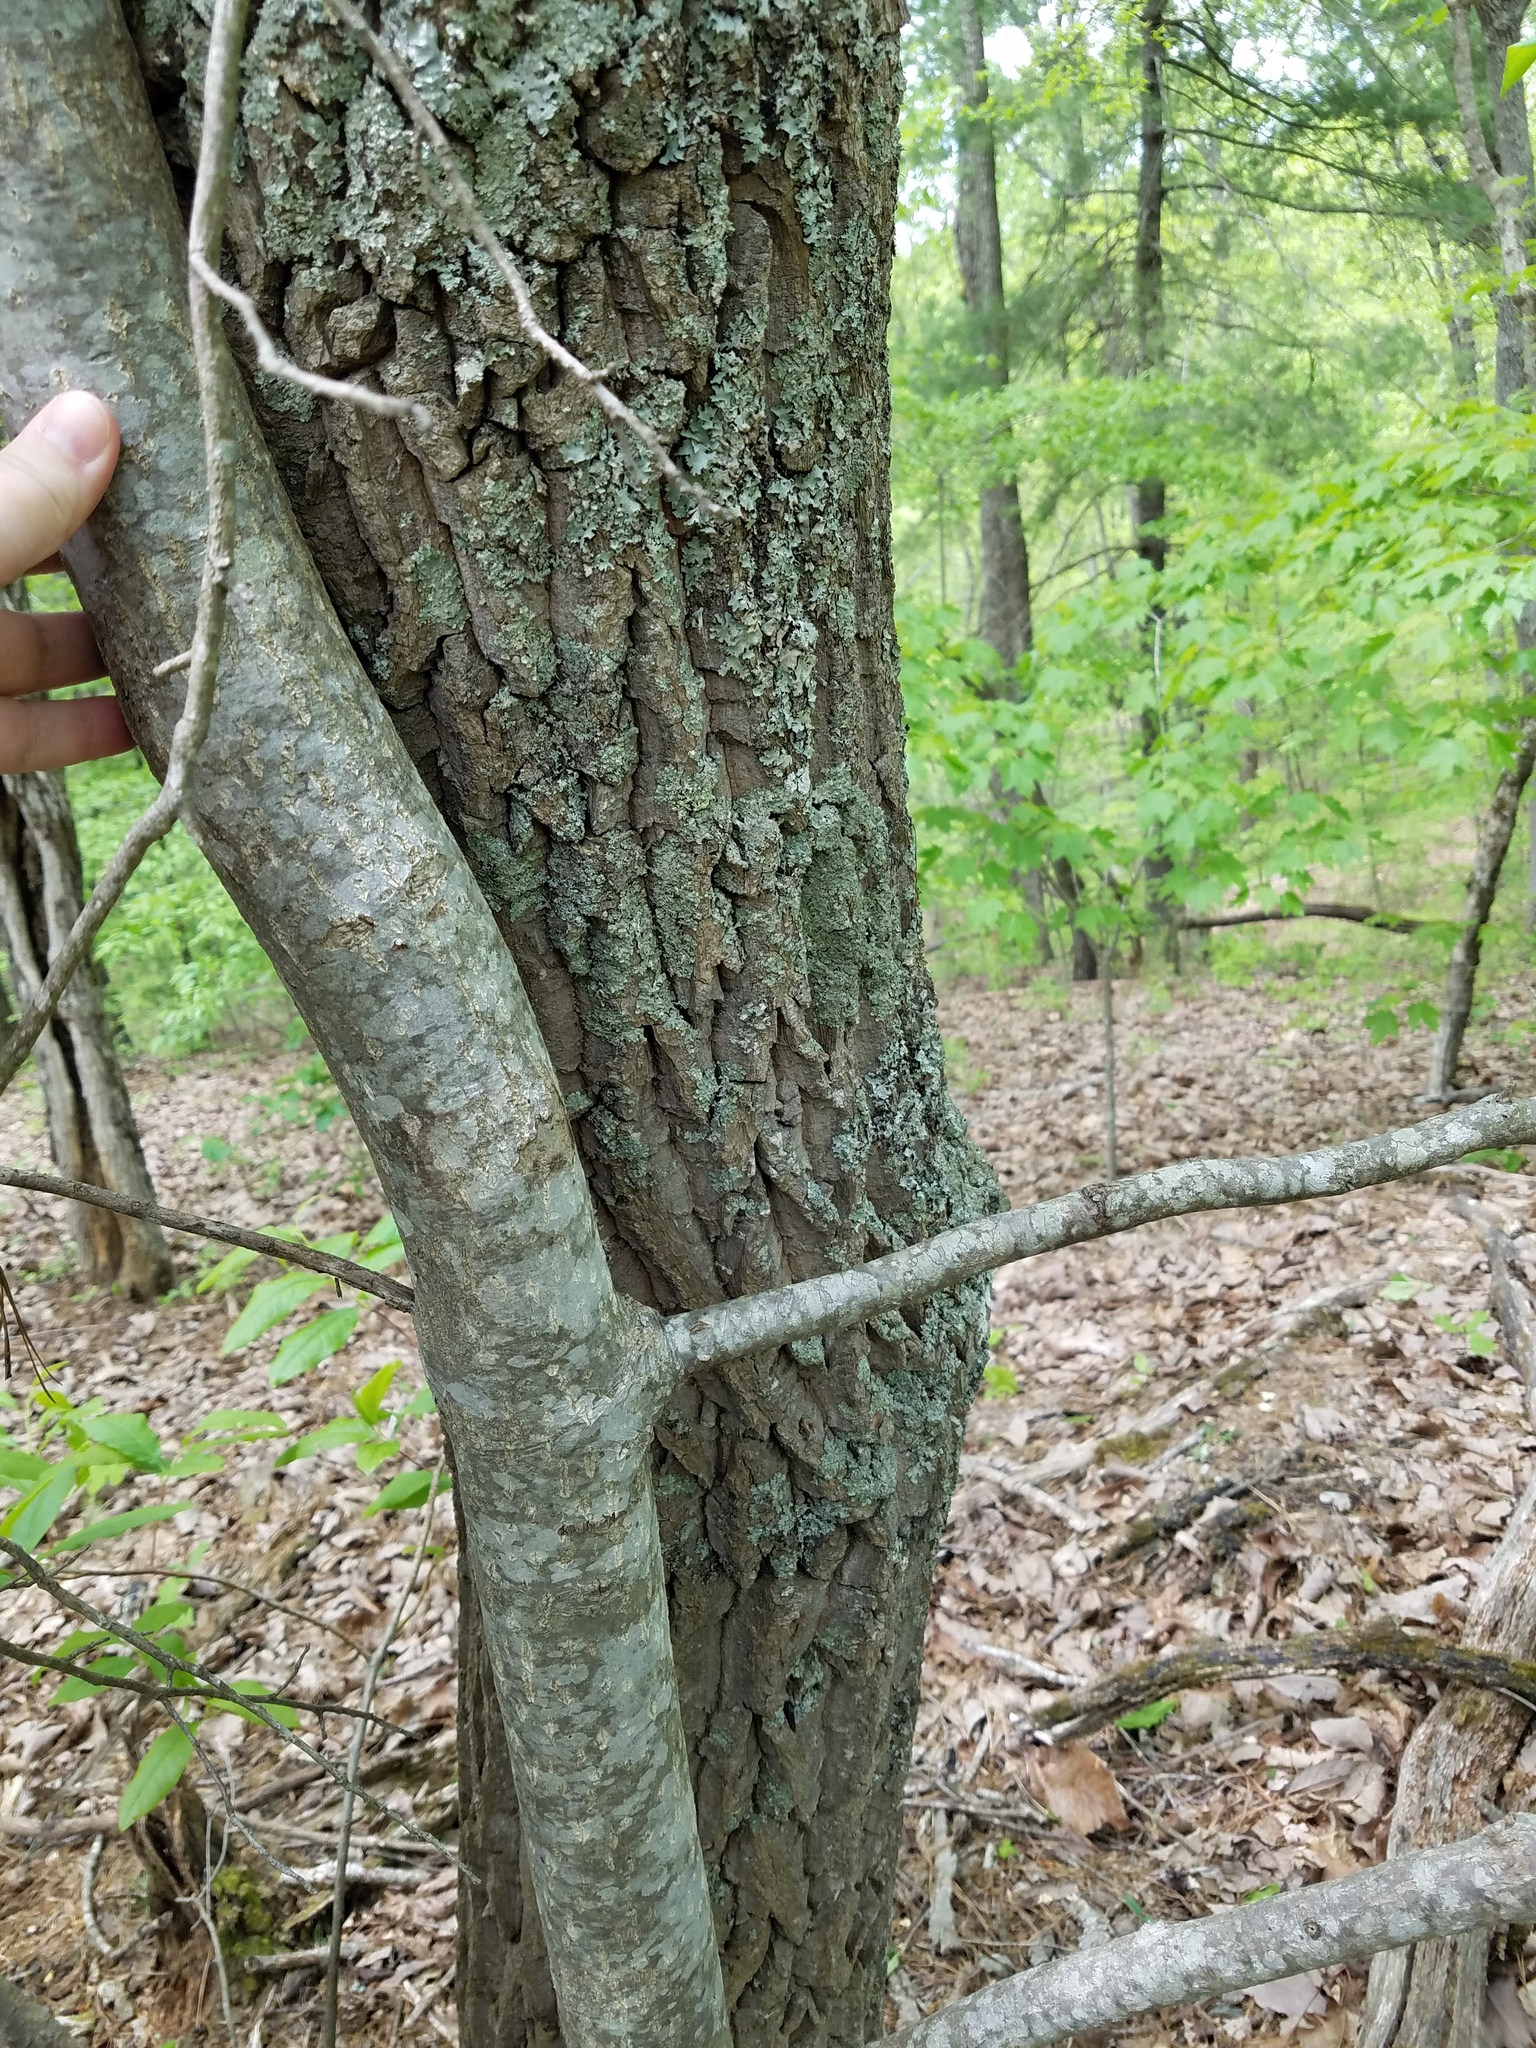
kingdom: Plantae
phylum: Tracheophyta
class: Magnoliopsida
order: Ericales
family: Ericaceae
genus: Oxydendrum
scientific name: Oxydendrum arboreum
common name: Sourwood
